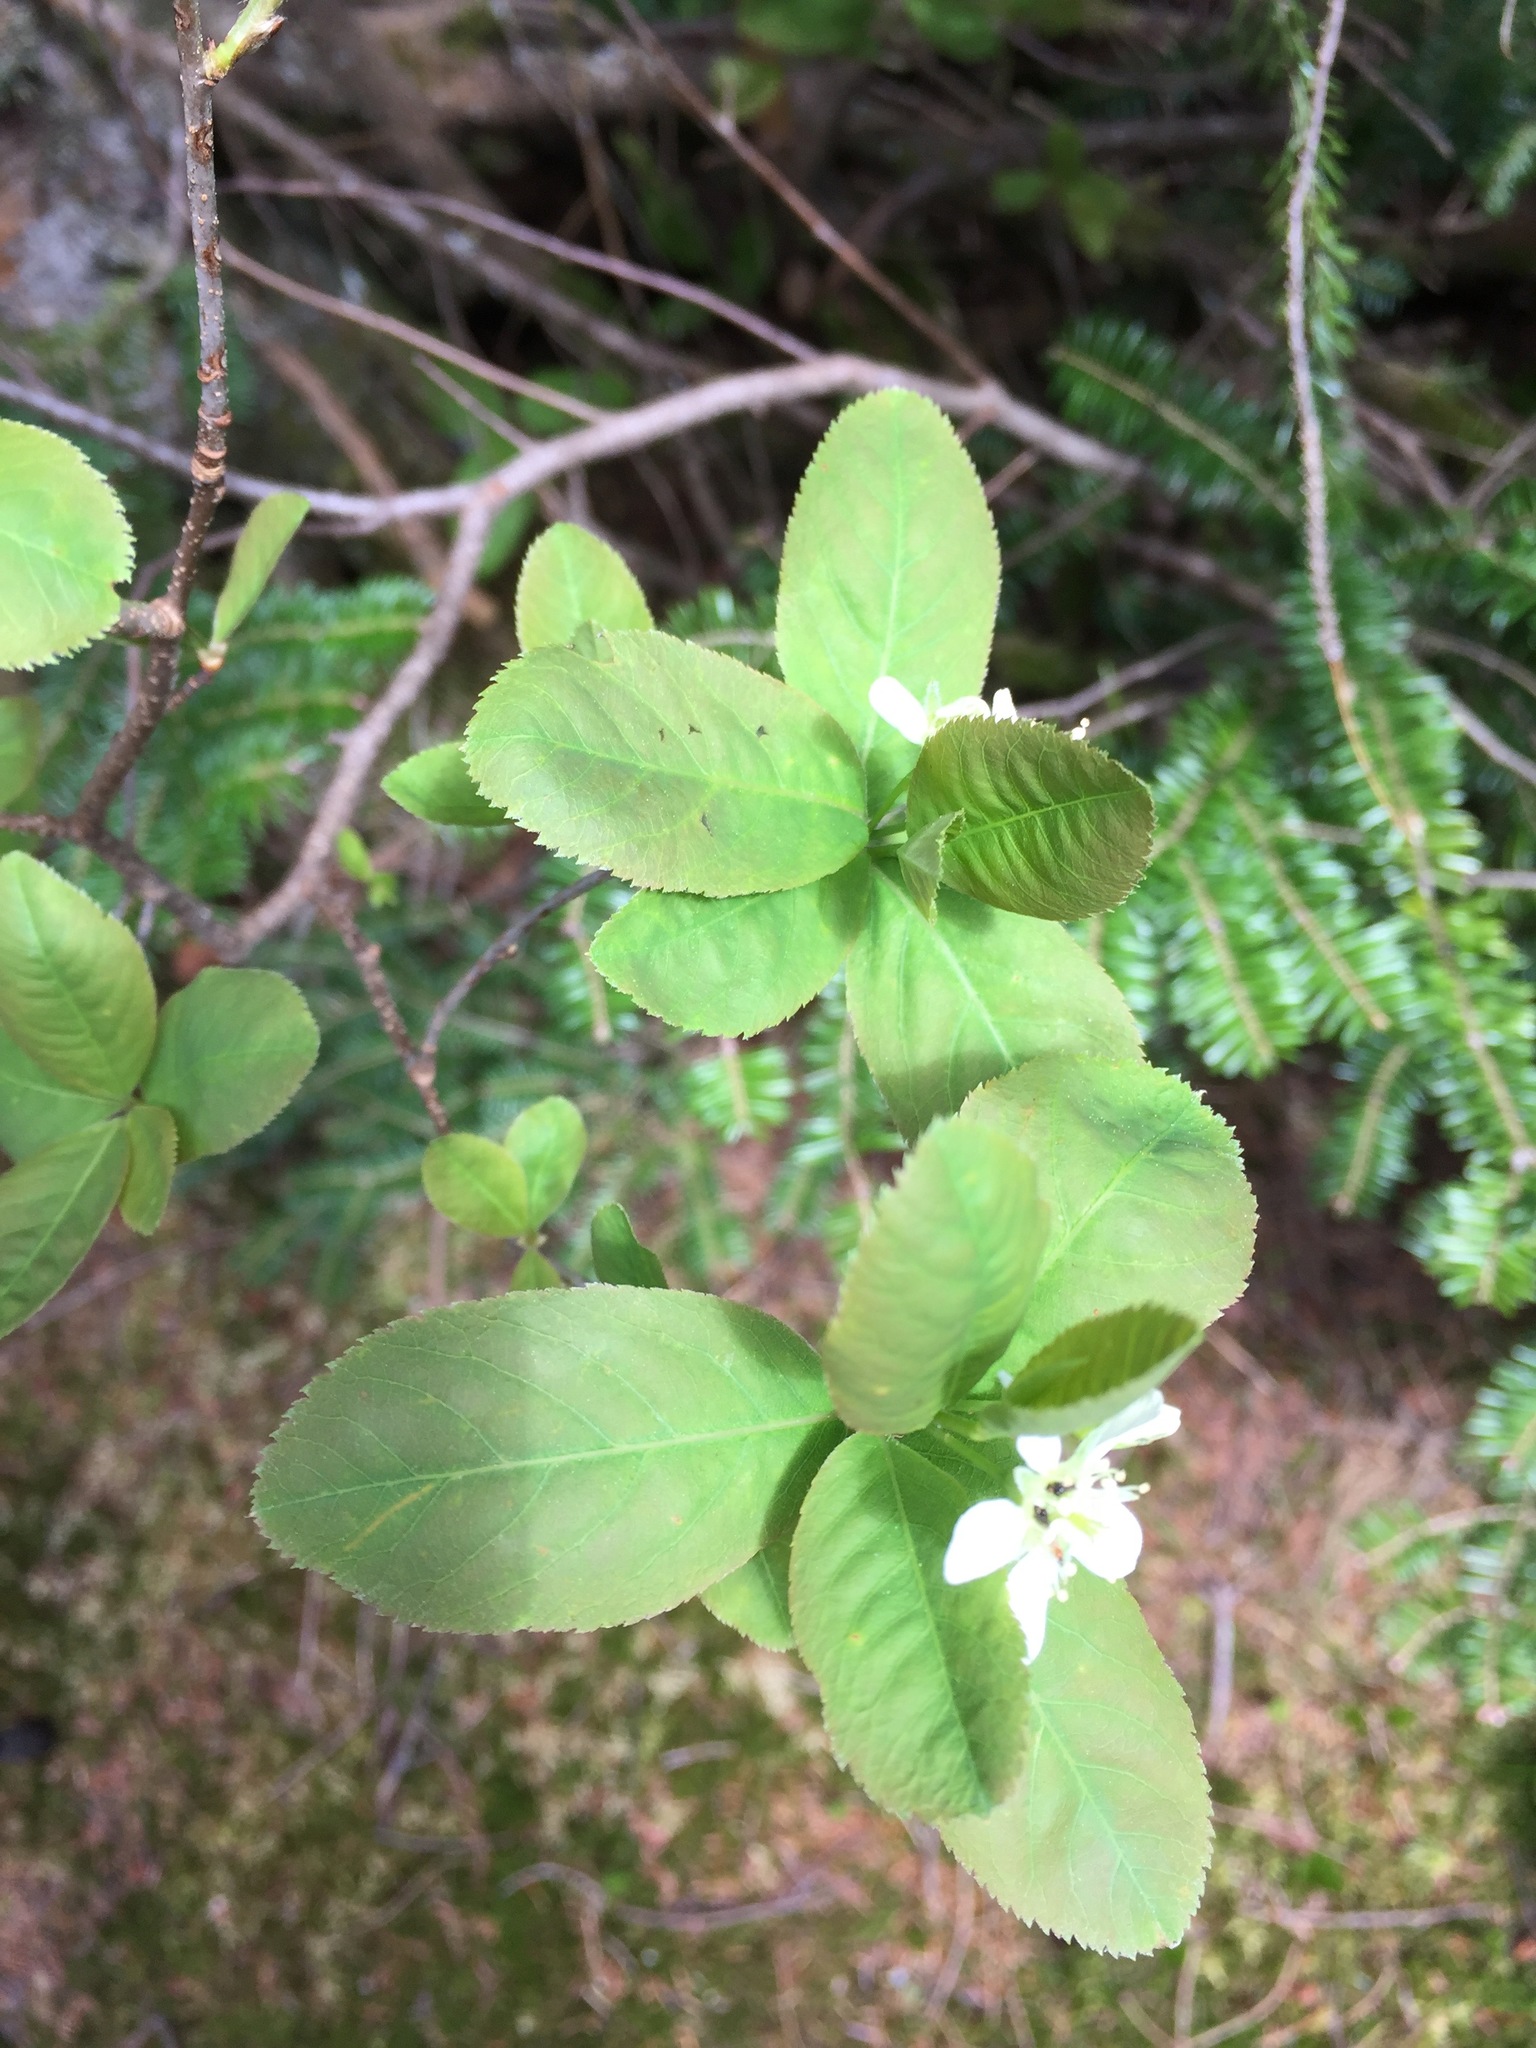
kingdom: Plantae
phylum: Tracheophyta
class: Magnoliopsida
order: Rosales
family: Rosaceae
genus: Amelanchier
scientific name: Amelanchier bartramiana
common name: Mountain serviceberry
